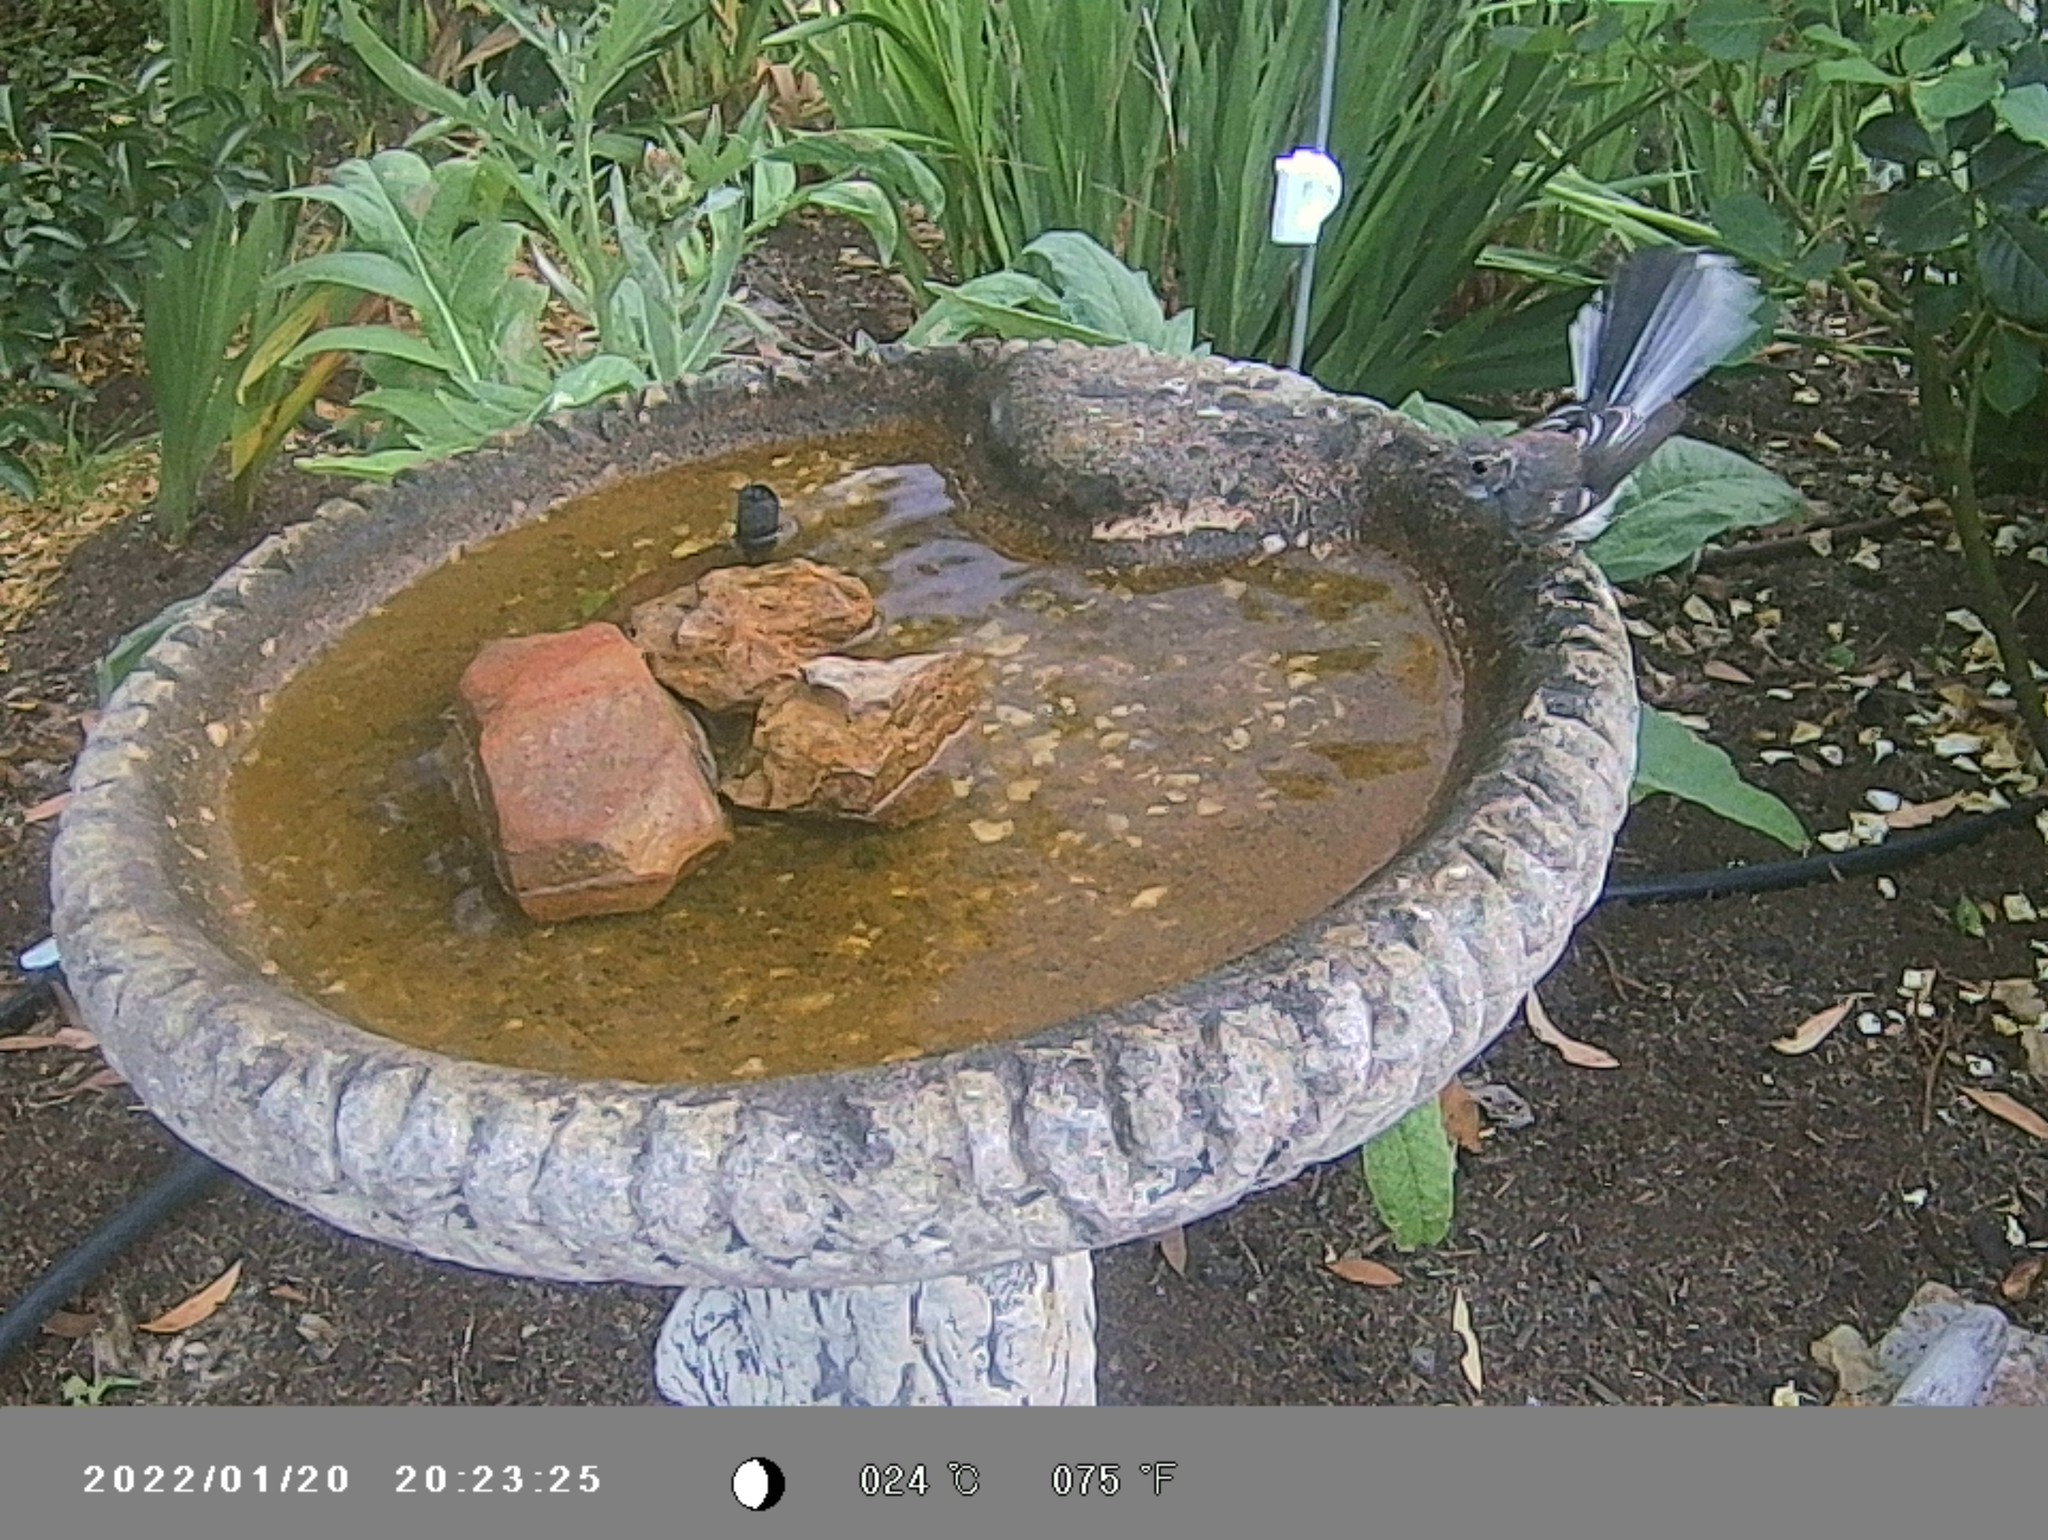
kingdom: Animalia
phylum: Chordata
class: Aves
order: Passeriformes
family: Rhipiduridae
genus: Rhipidura
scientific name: Rhipidura albiscapa
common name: Grey fantail
